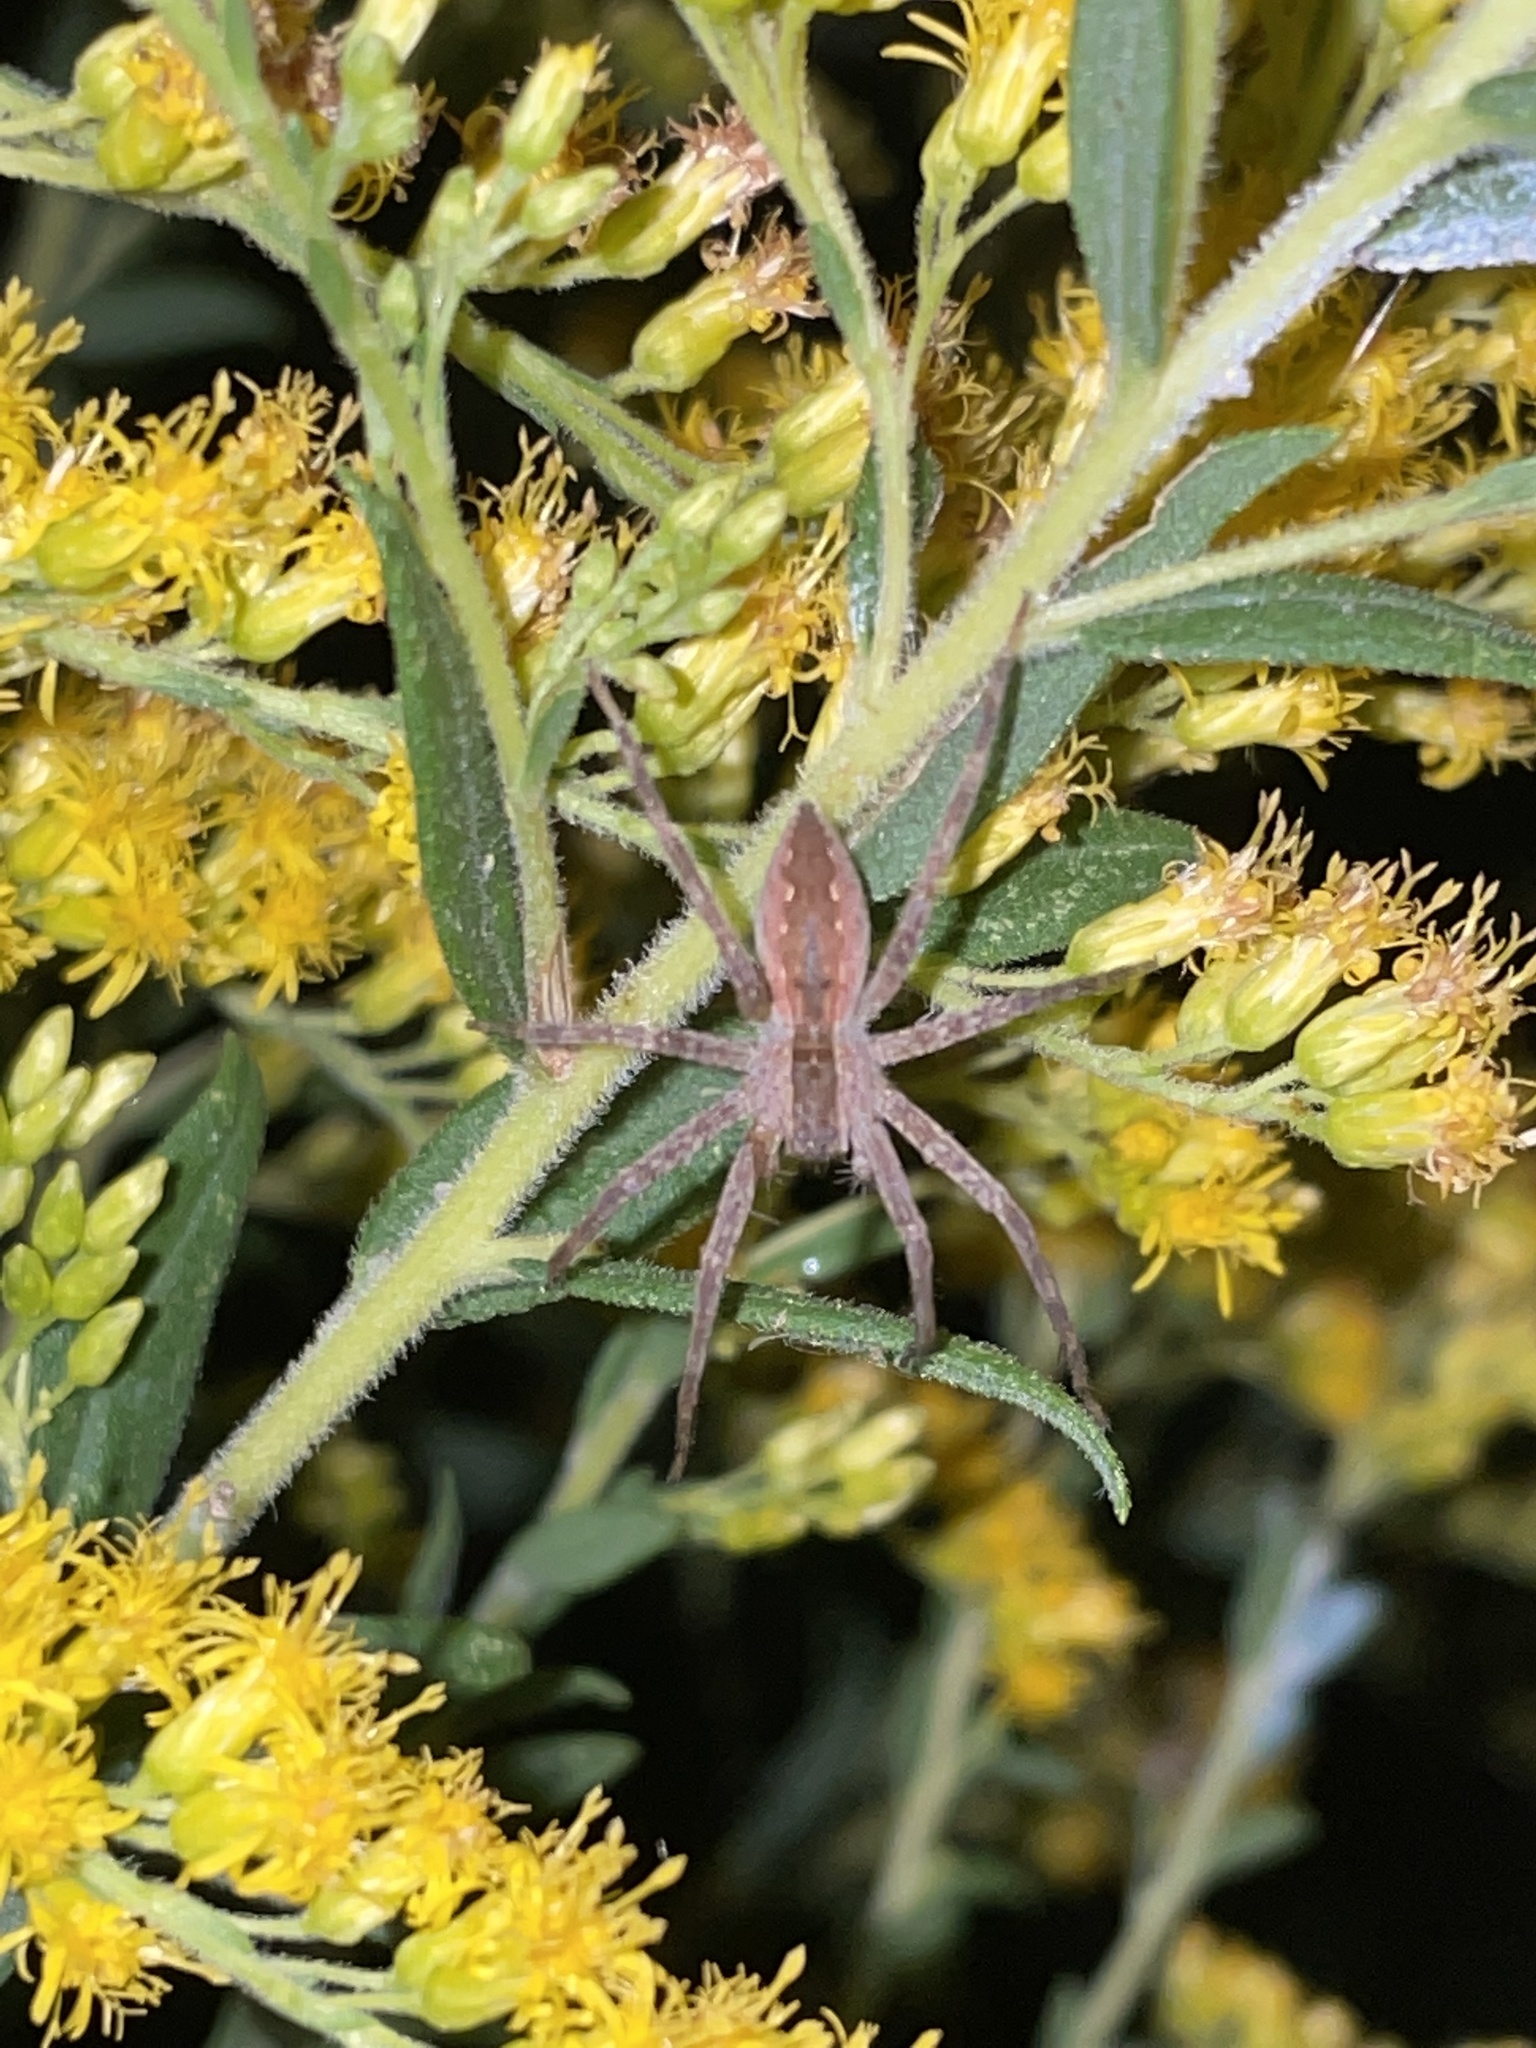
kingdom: Animalia
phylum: Arthropoda
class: Arachnida
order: Araneae
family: Pisauridae
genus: Pisaurina
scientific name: Pisaurina mira
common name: American nursery web spider
